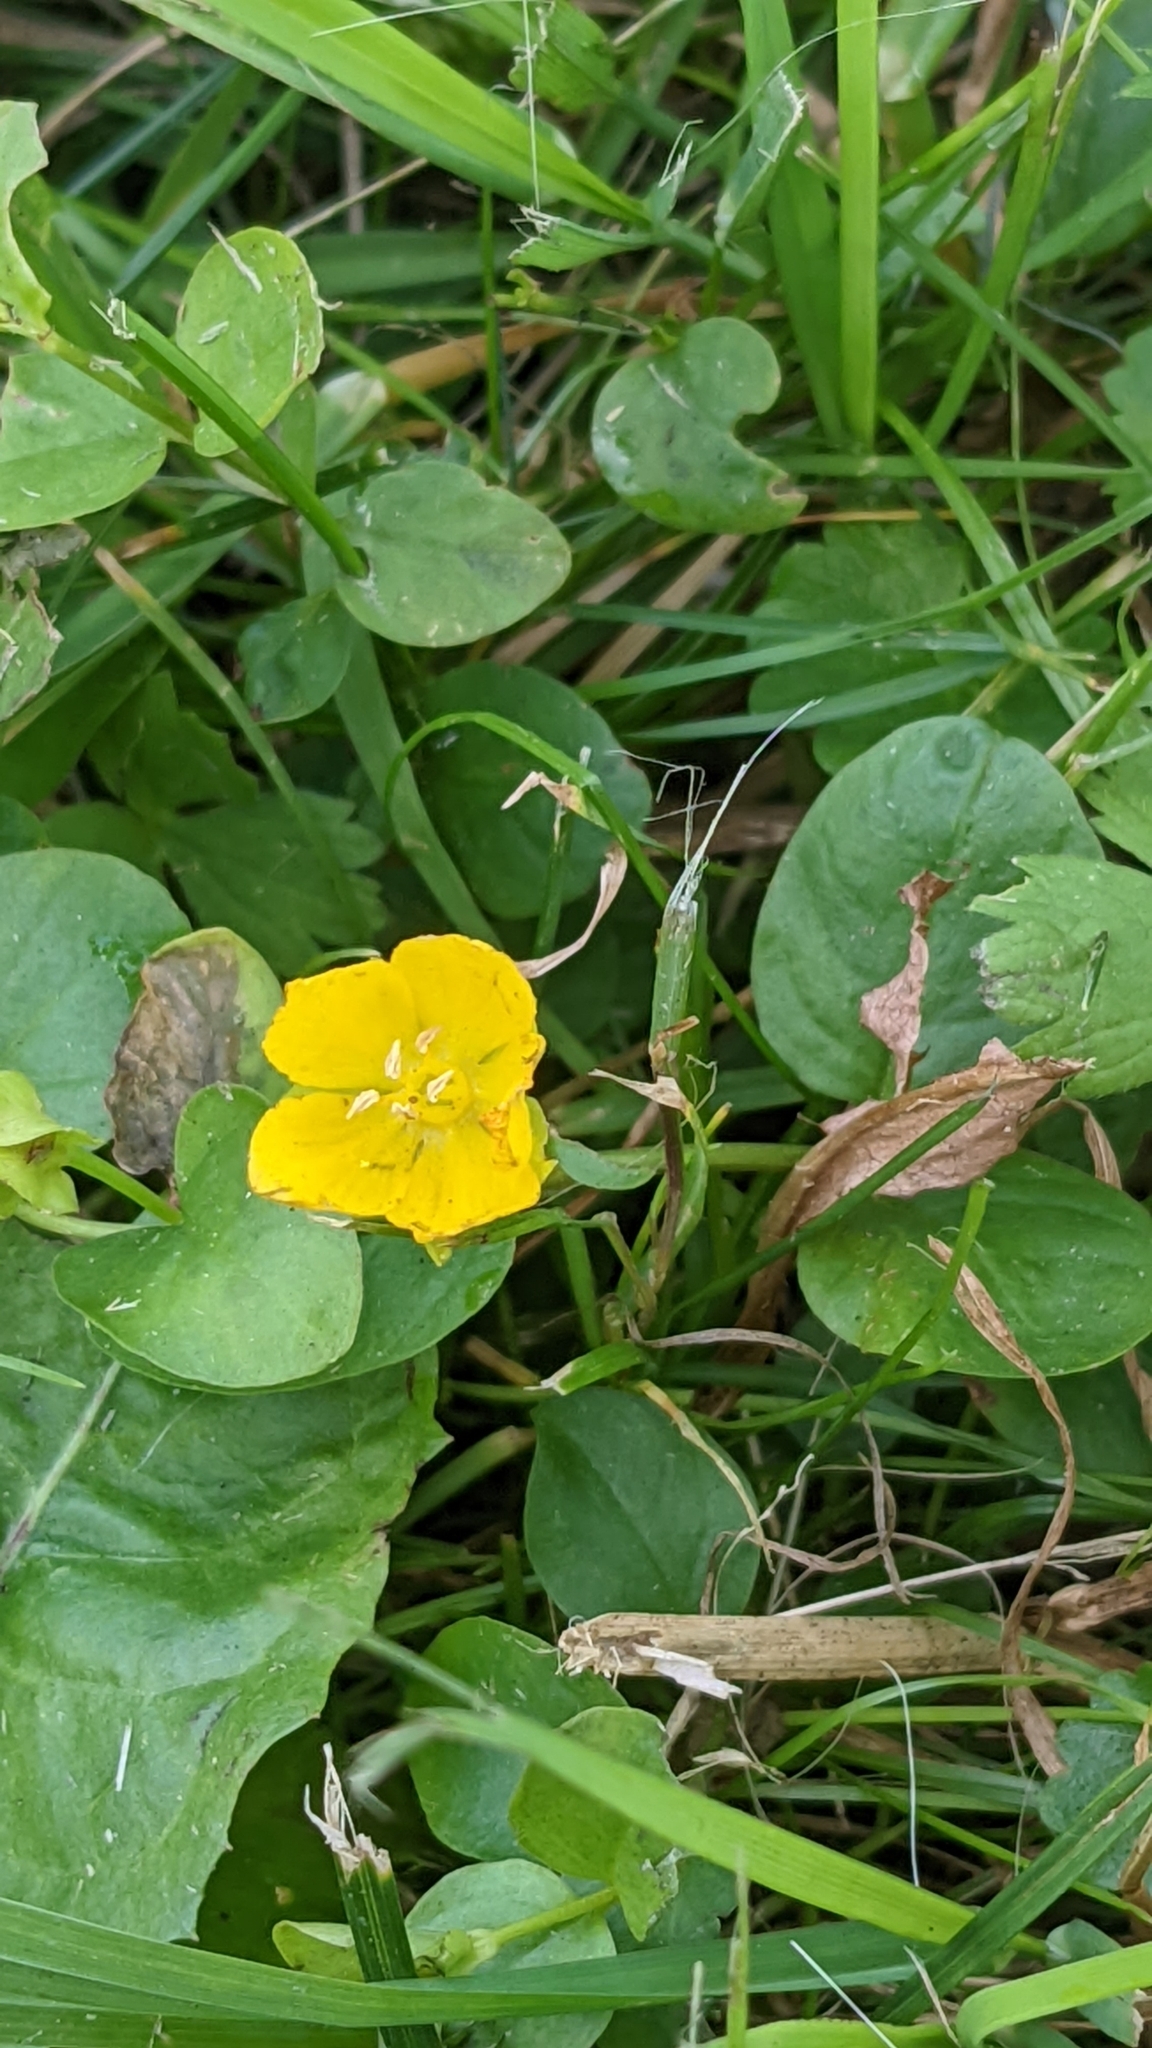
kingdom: Plantae
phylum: Tracheophyta
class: Magnoliopsida
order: Ericales
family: Primulaceae
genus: Lysimachia
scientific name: Lysimachia nummularia
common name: Moneywort
